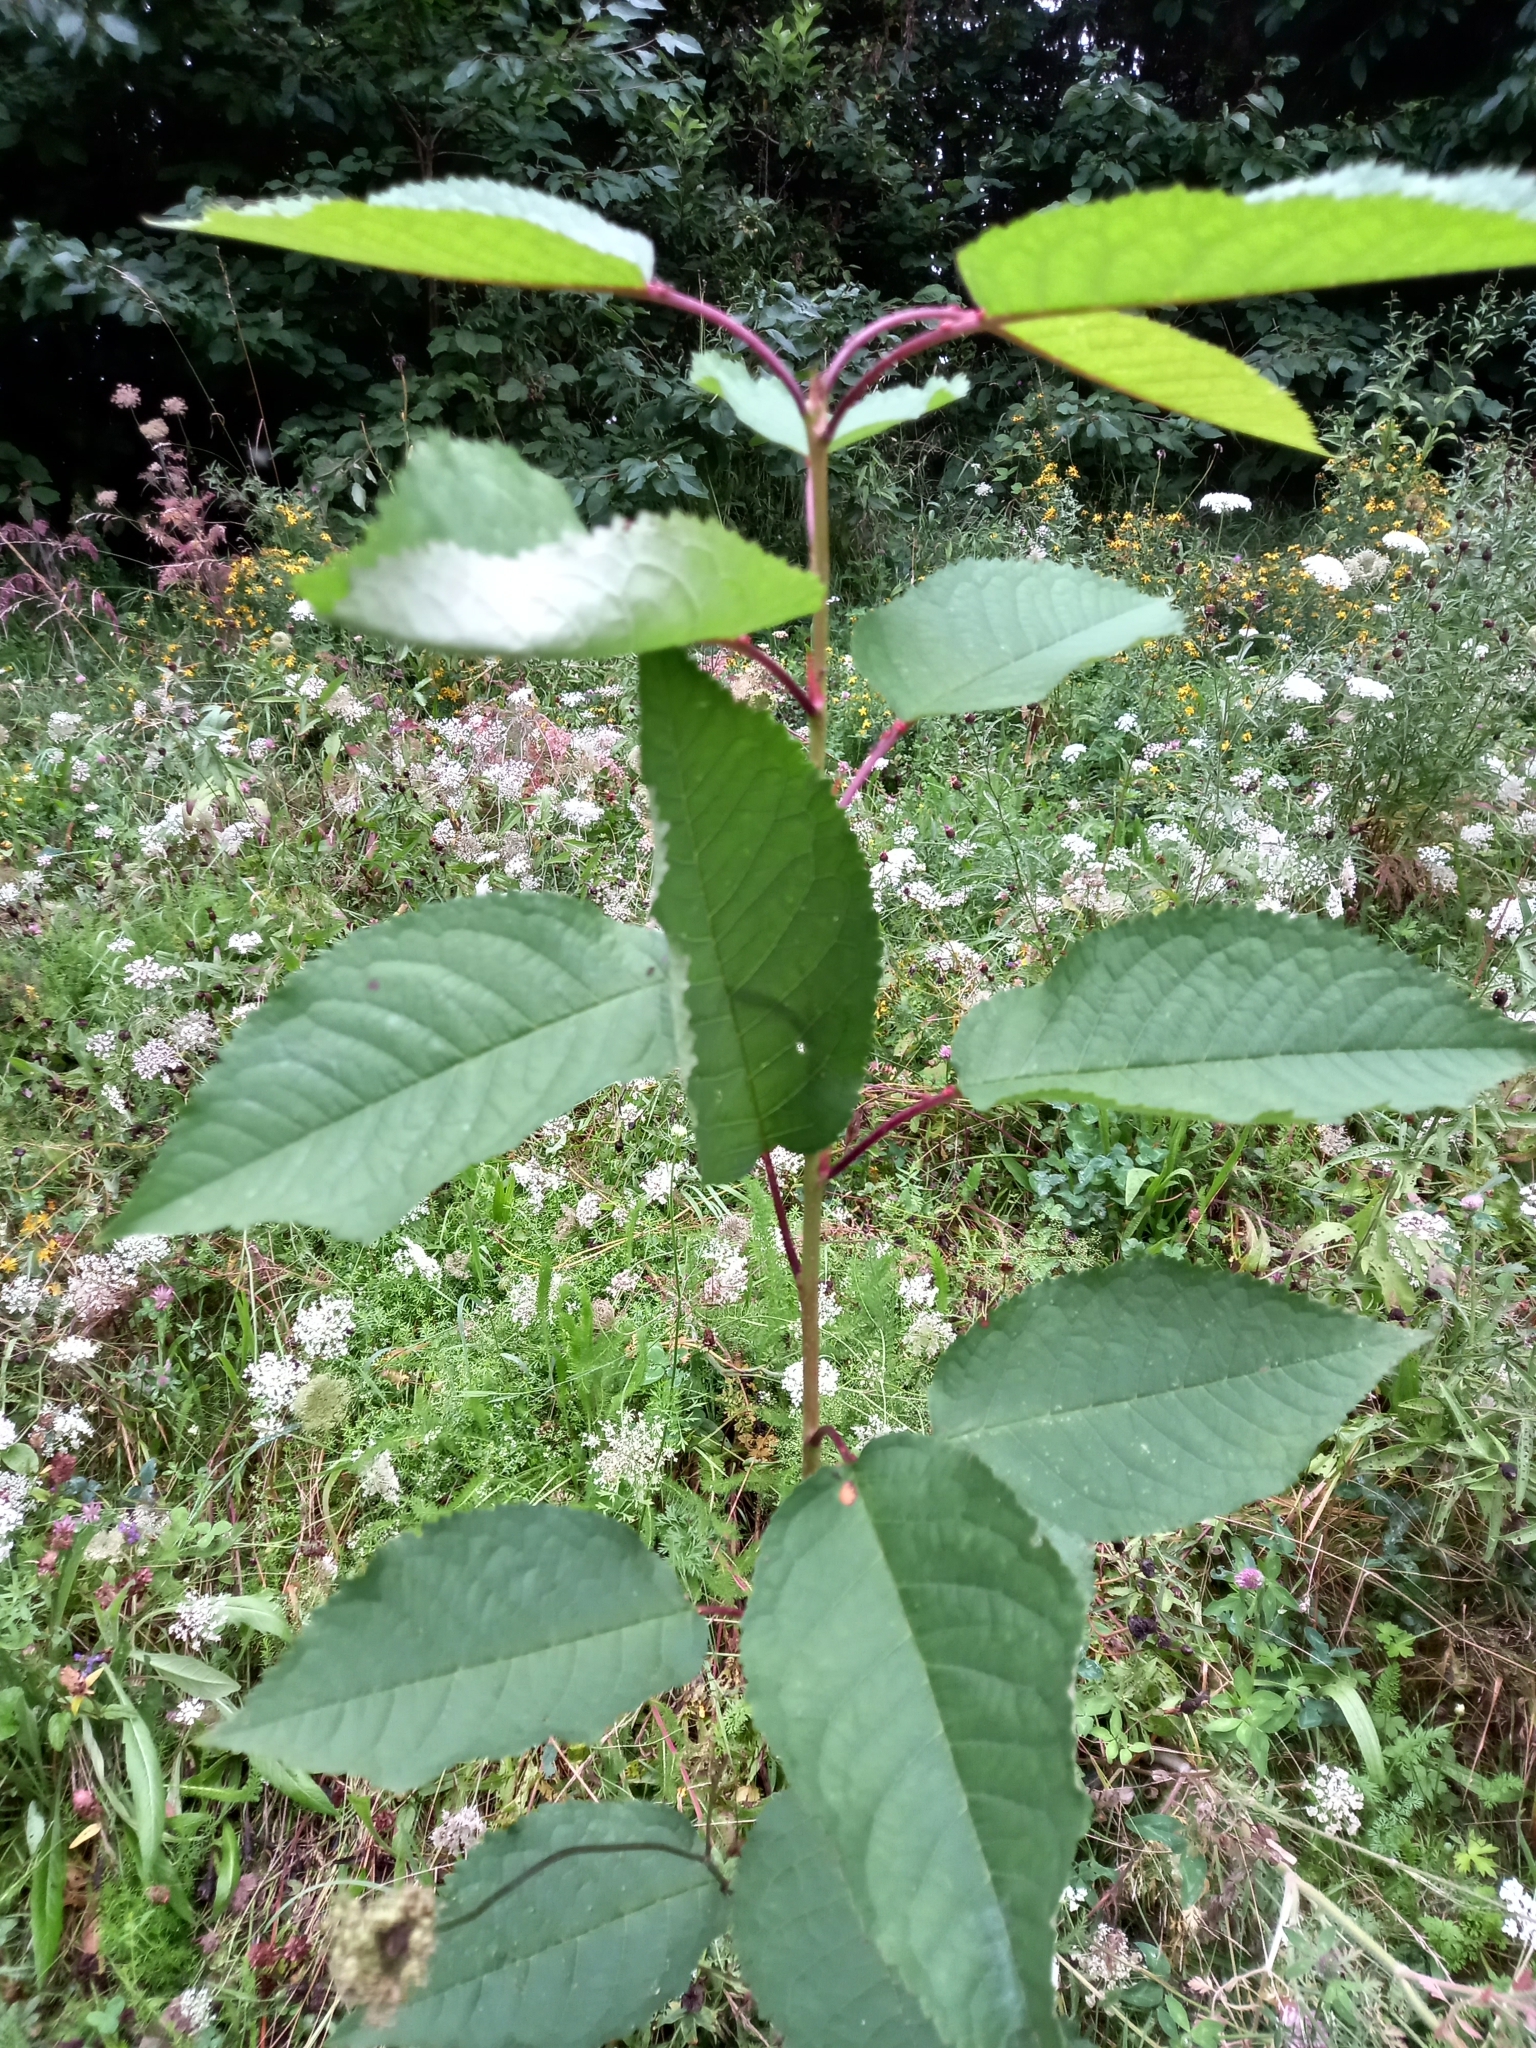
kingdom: Plantae
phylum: Tracheophyta
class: Magnoliopsida
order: Rosales
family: Rosaceae
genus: Prunus
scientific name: Prunus avium
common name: Sweet cherry
